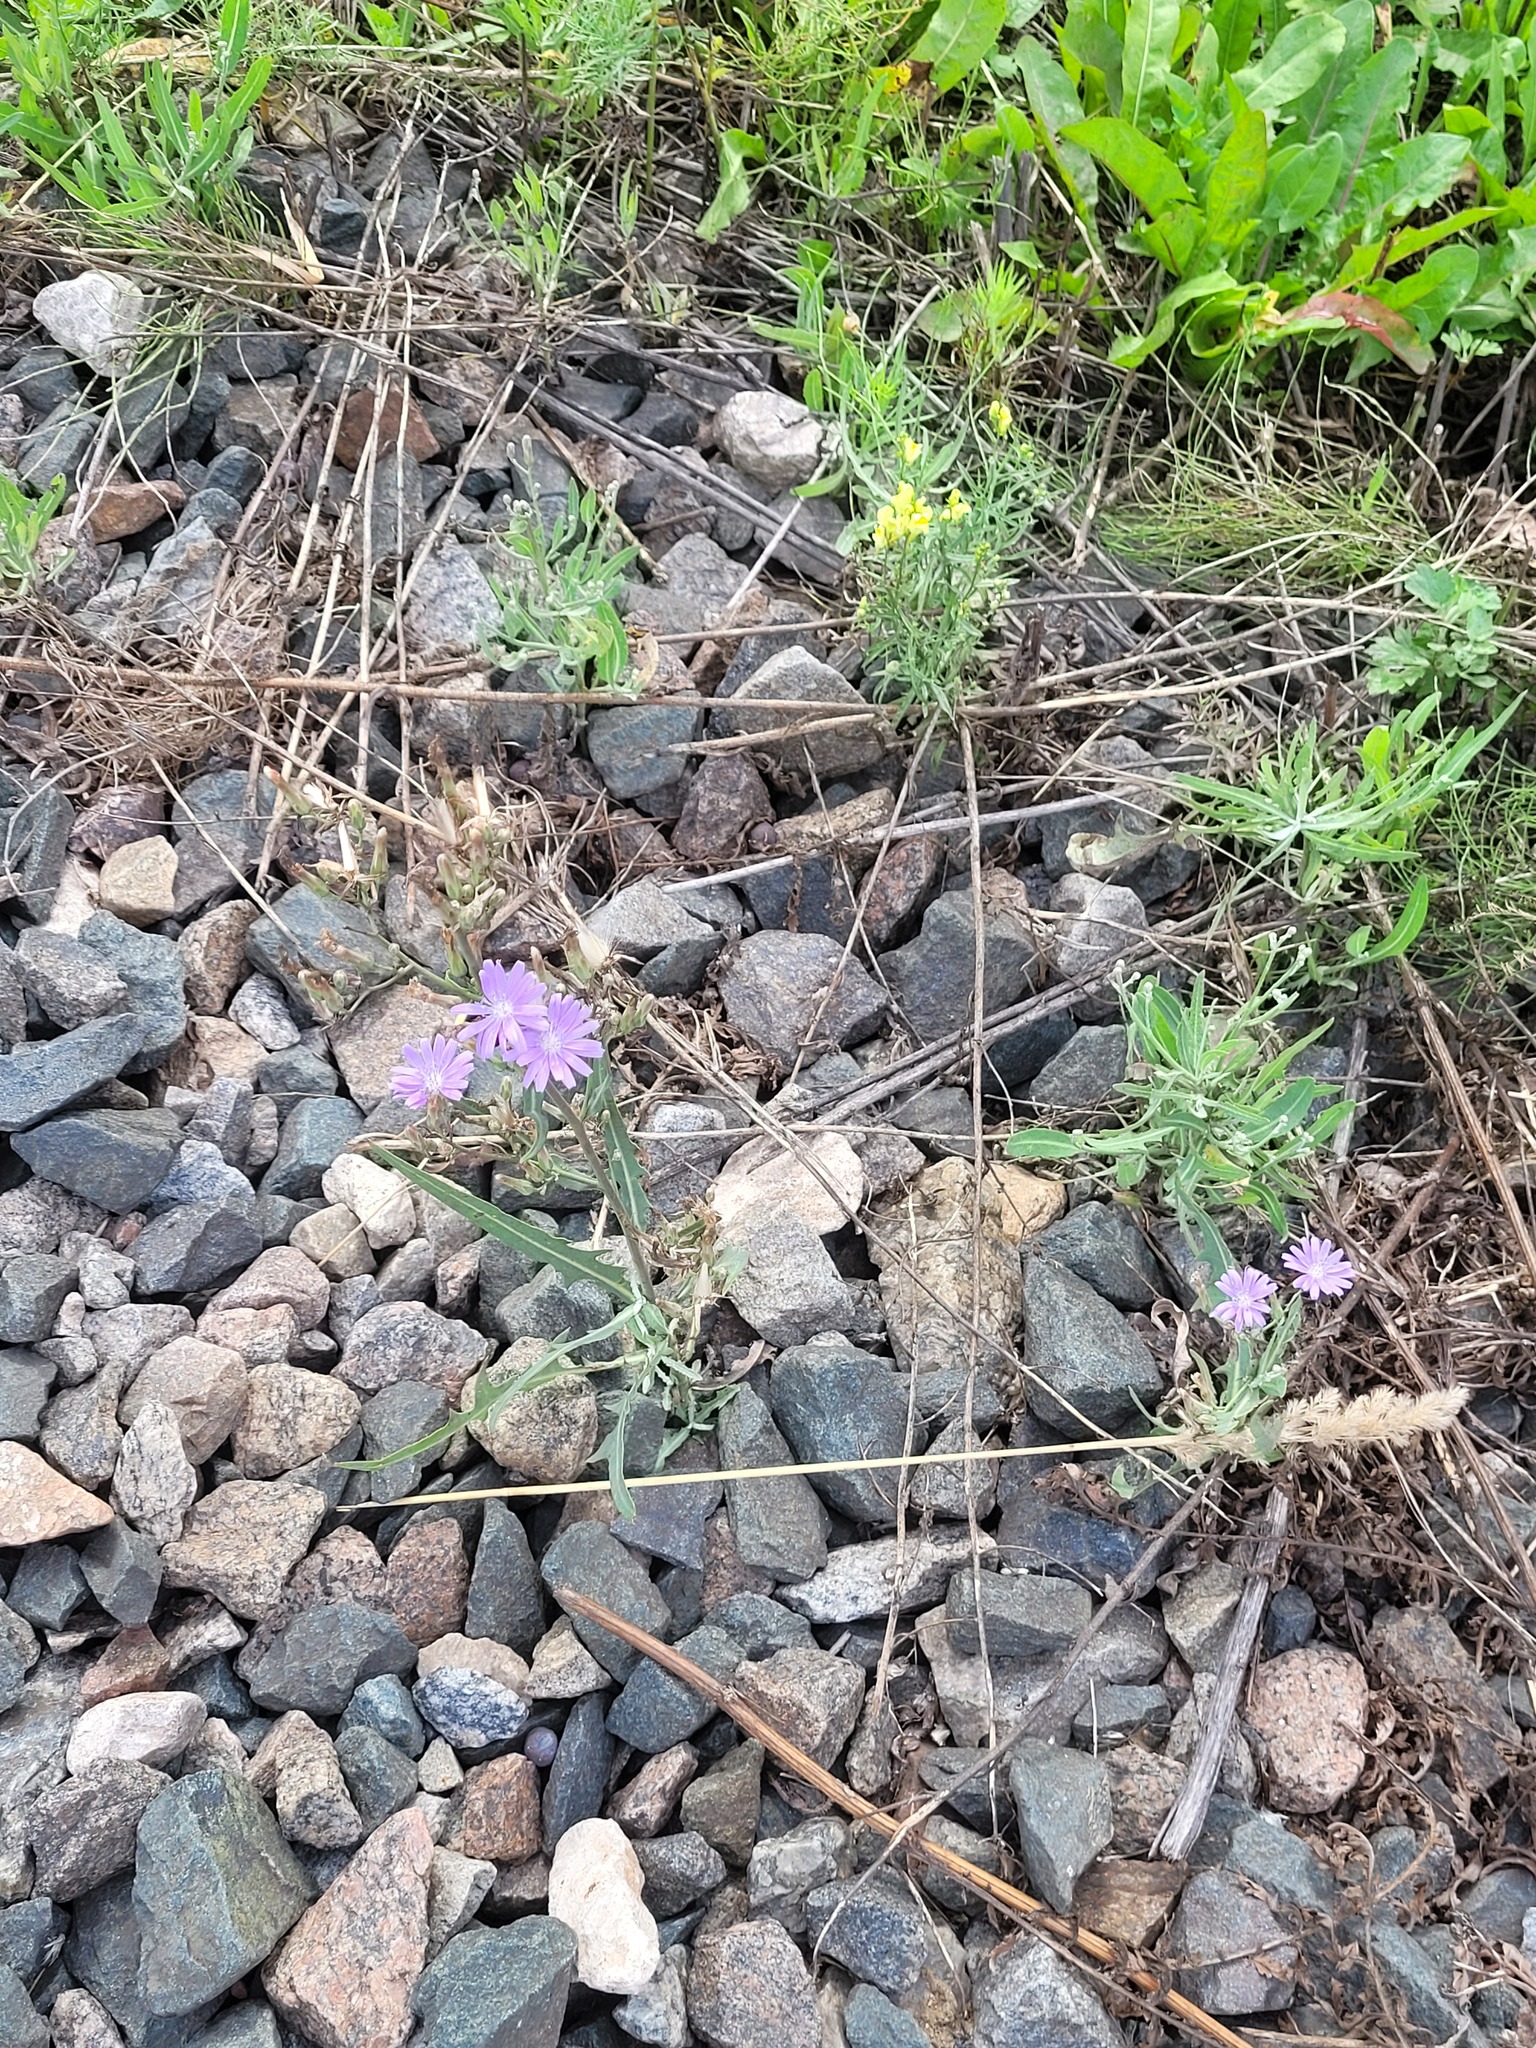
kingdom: Plantae
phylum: Tracheophyta
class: Magnoliopsida
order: Asterales
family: Asteraceae
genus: Lactuca
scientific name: Lactuca tatarica
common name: Blue lettuce
